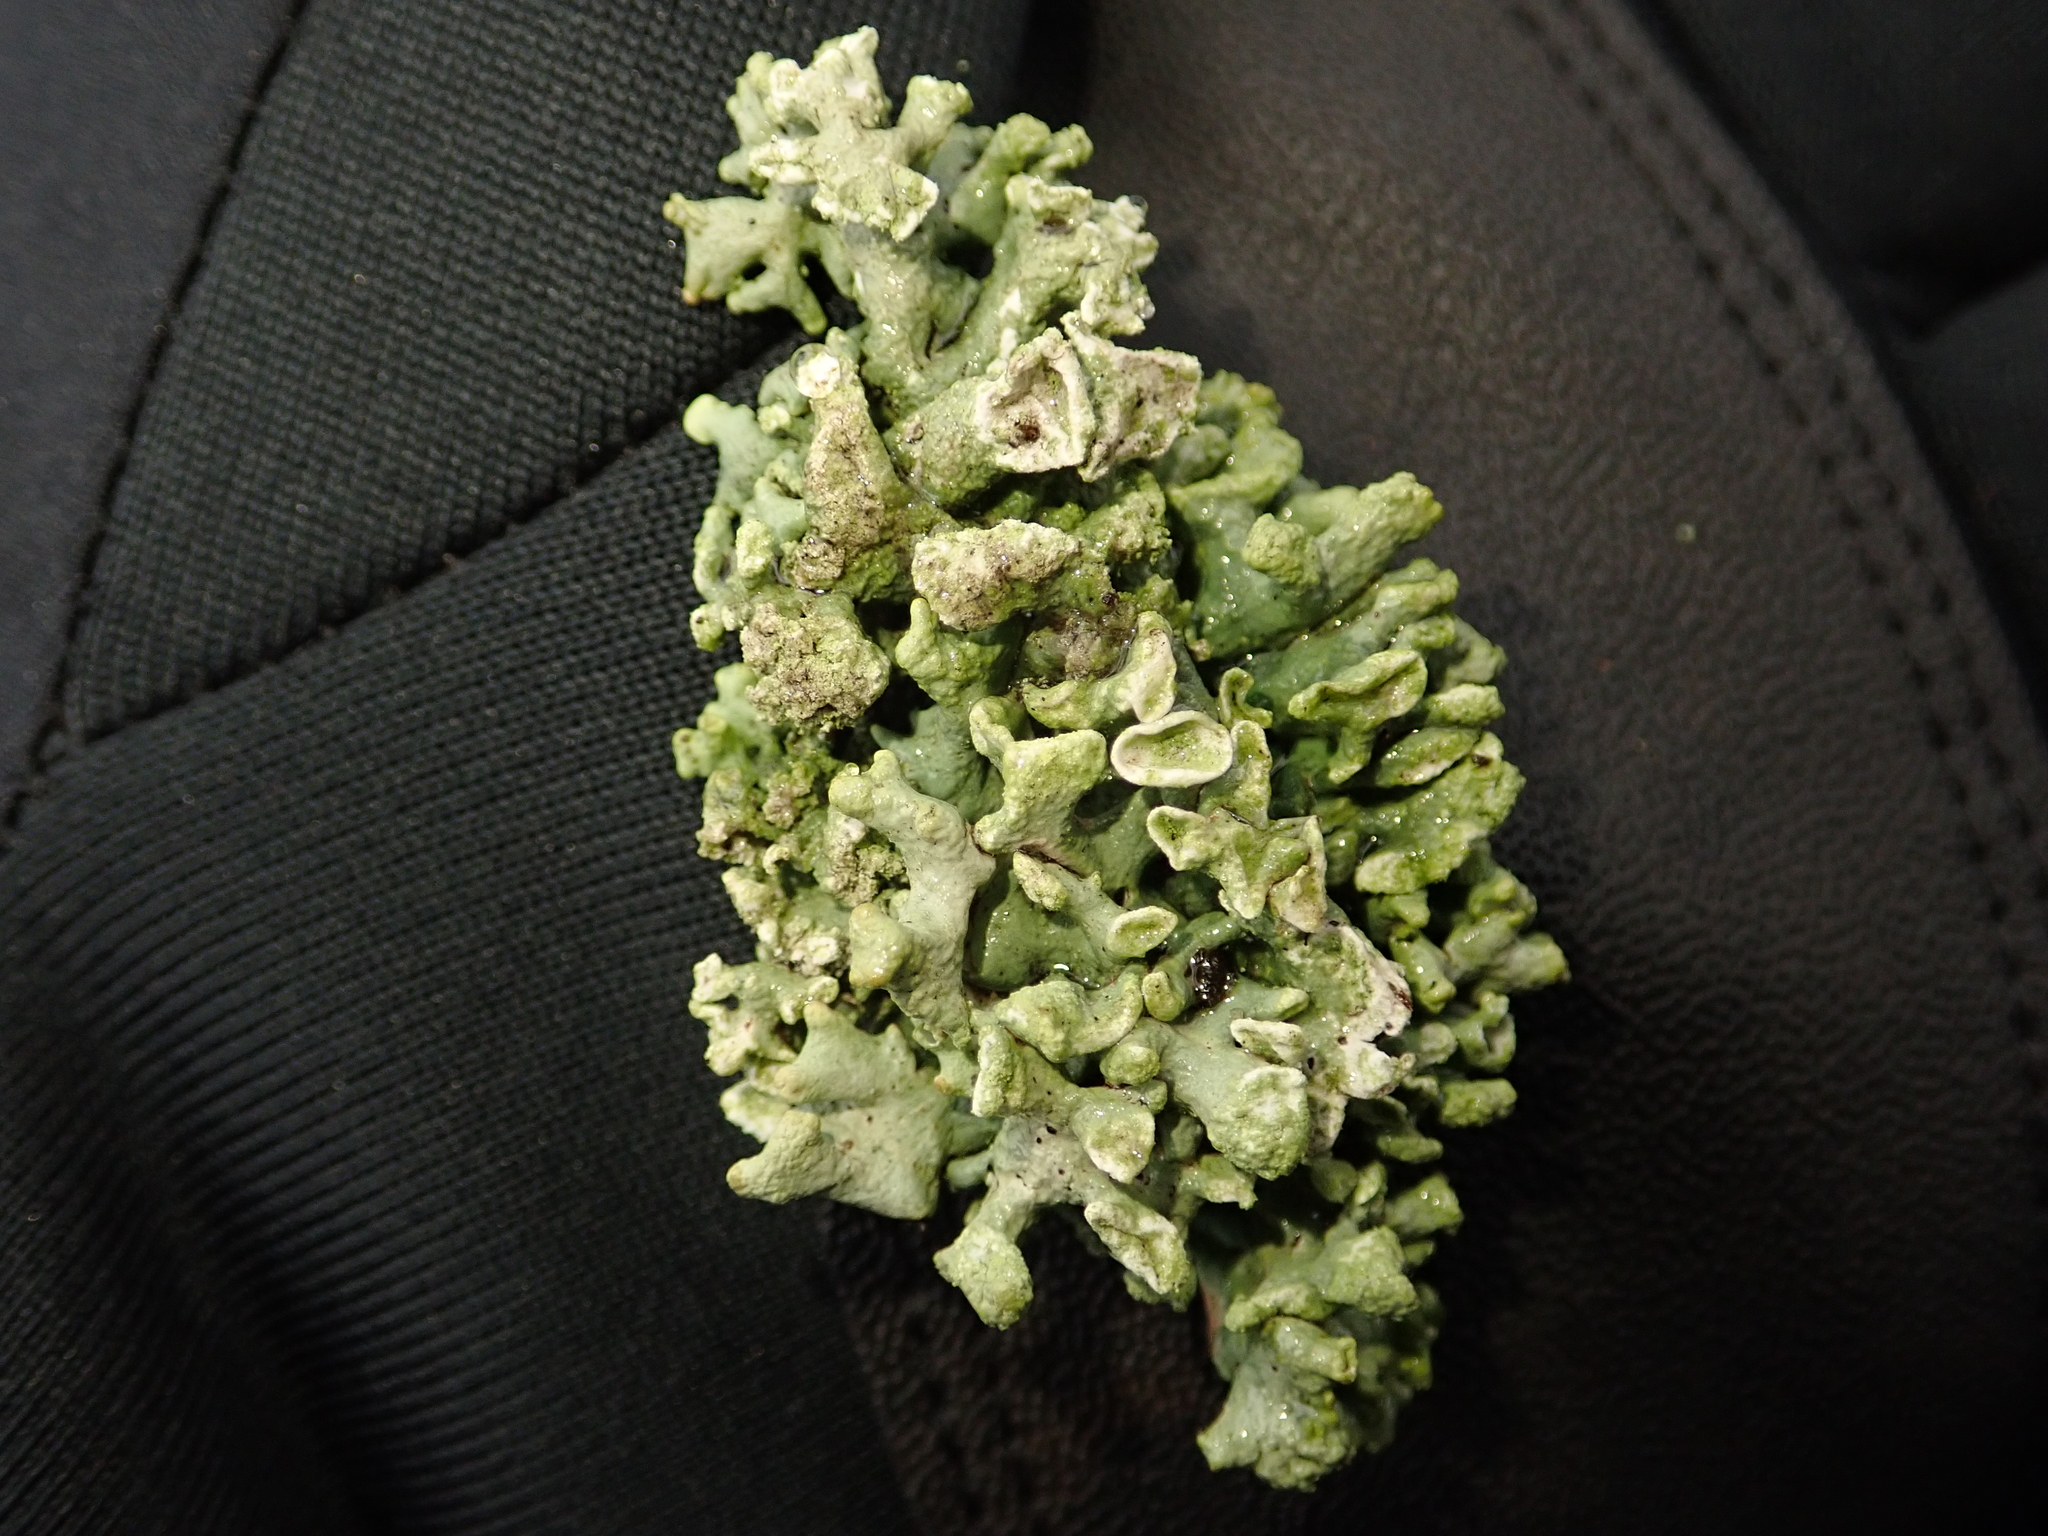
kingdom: Fungi
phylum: Ascomycota
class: Lecanoromycetes
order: Lecanorales
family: Parmeliaceae
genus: Hypogymnia
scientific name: Hypogymnia tubulosa
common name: Powder-headed tube lichen
